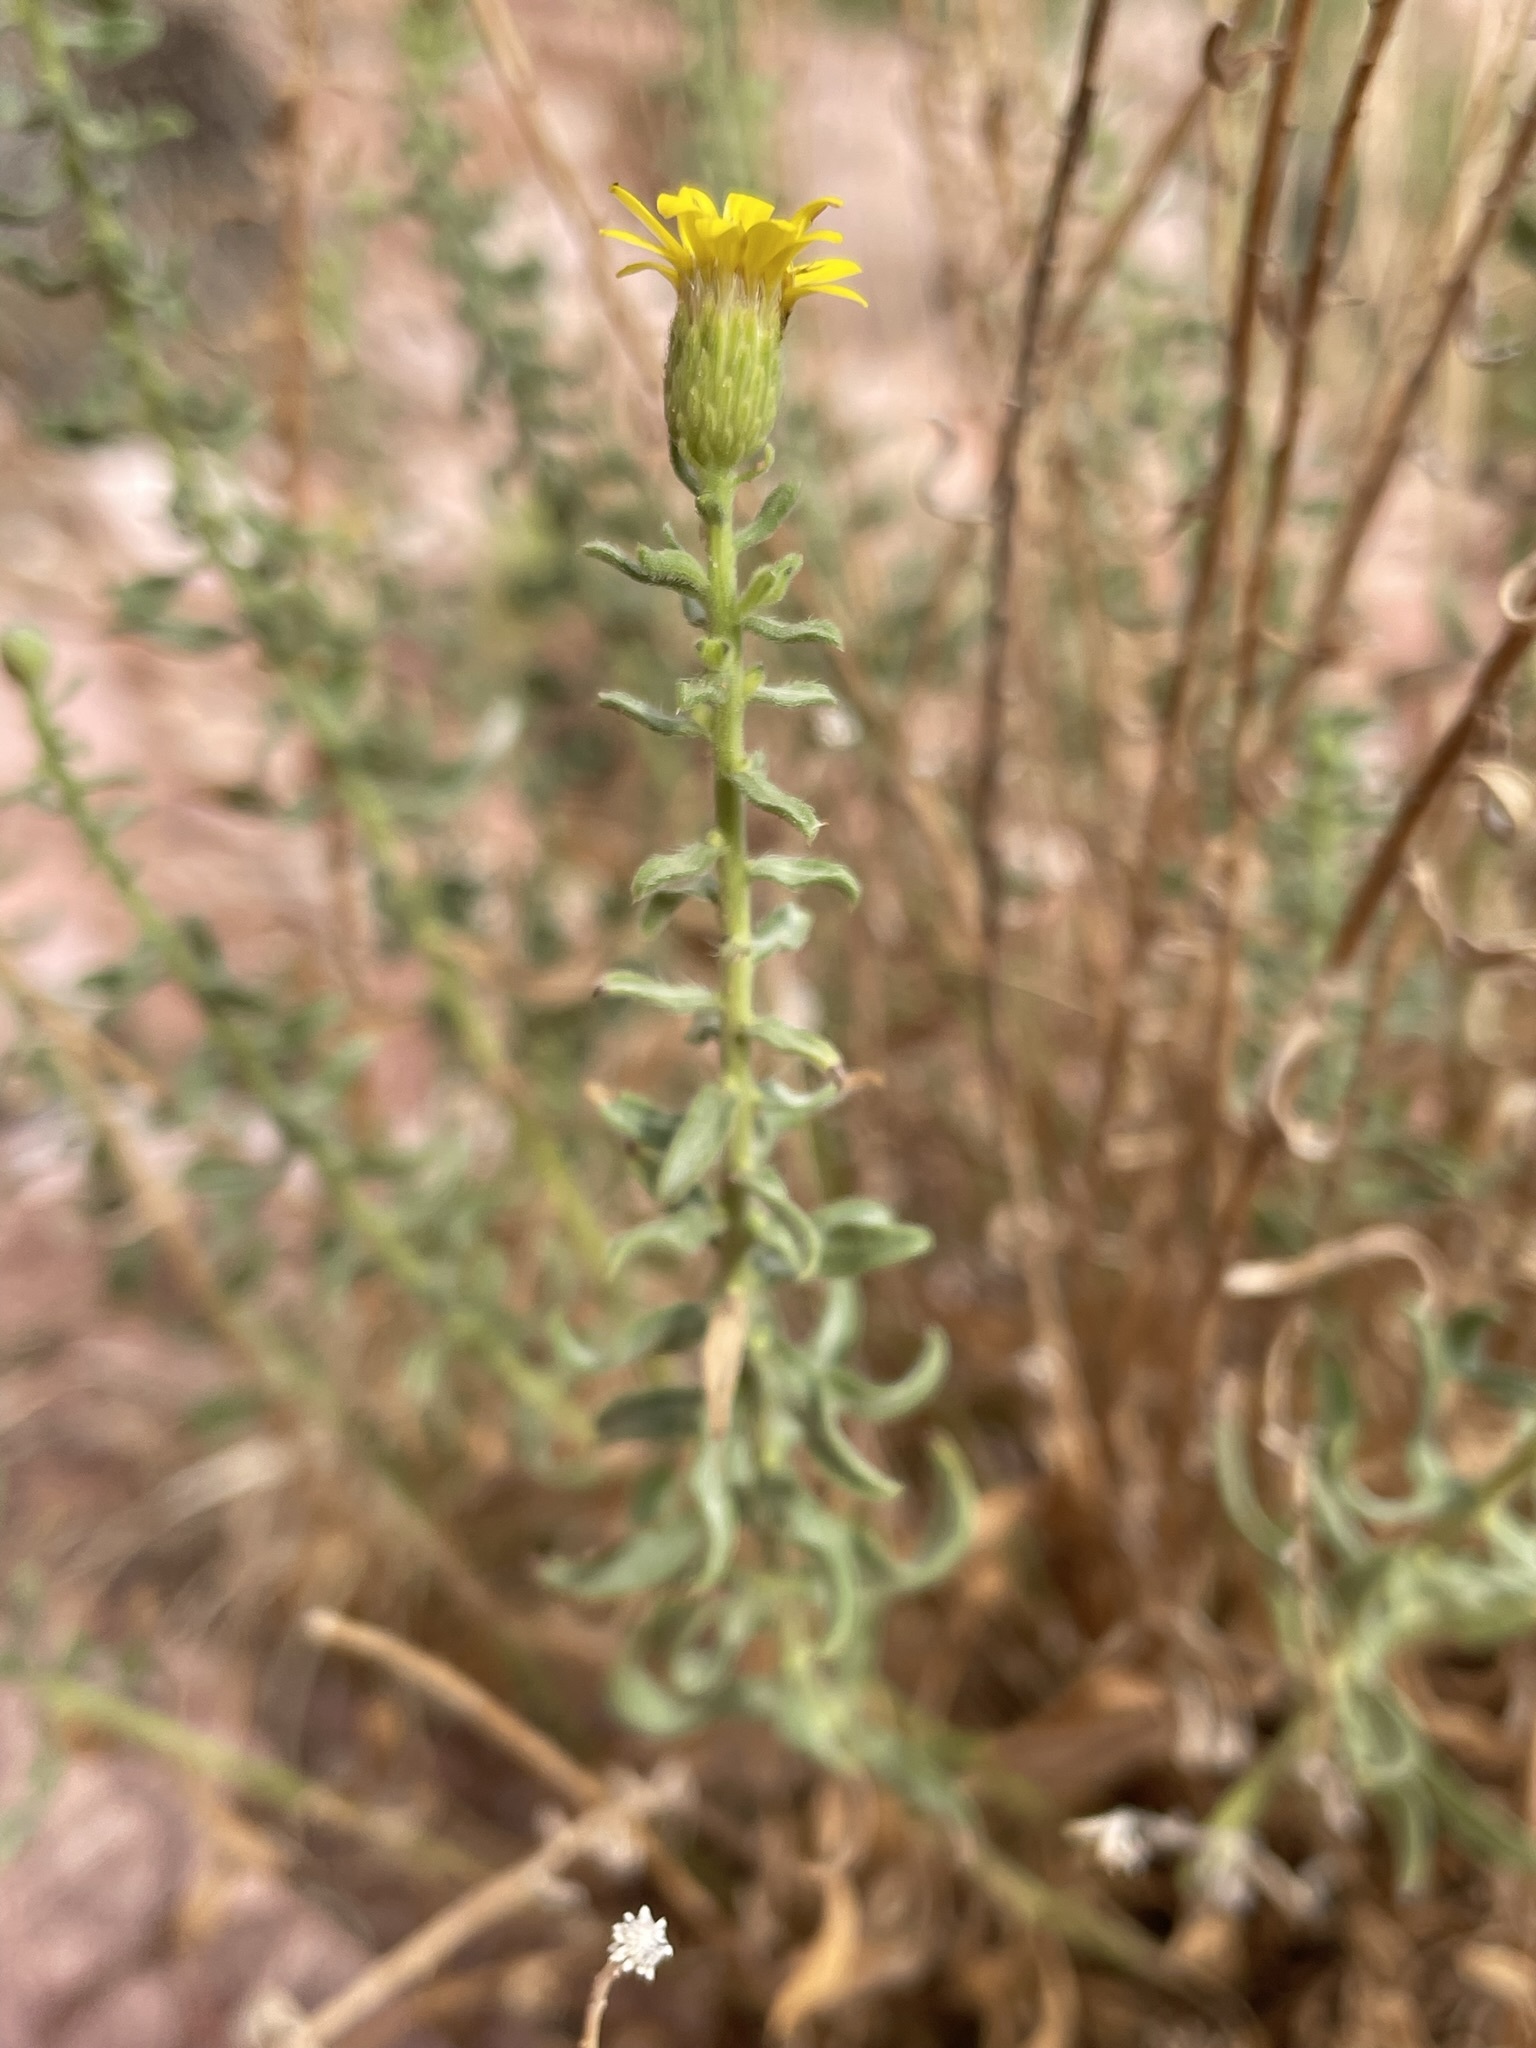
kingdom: Plantae
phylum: Tracheophyta
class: Magnoliopsida
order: Asterales
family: Asteraceae
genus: Heterotheca
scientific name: Heterotheca excelsior
